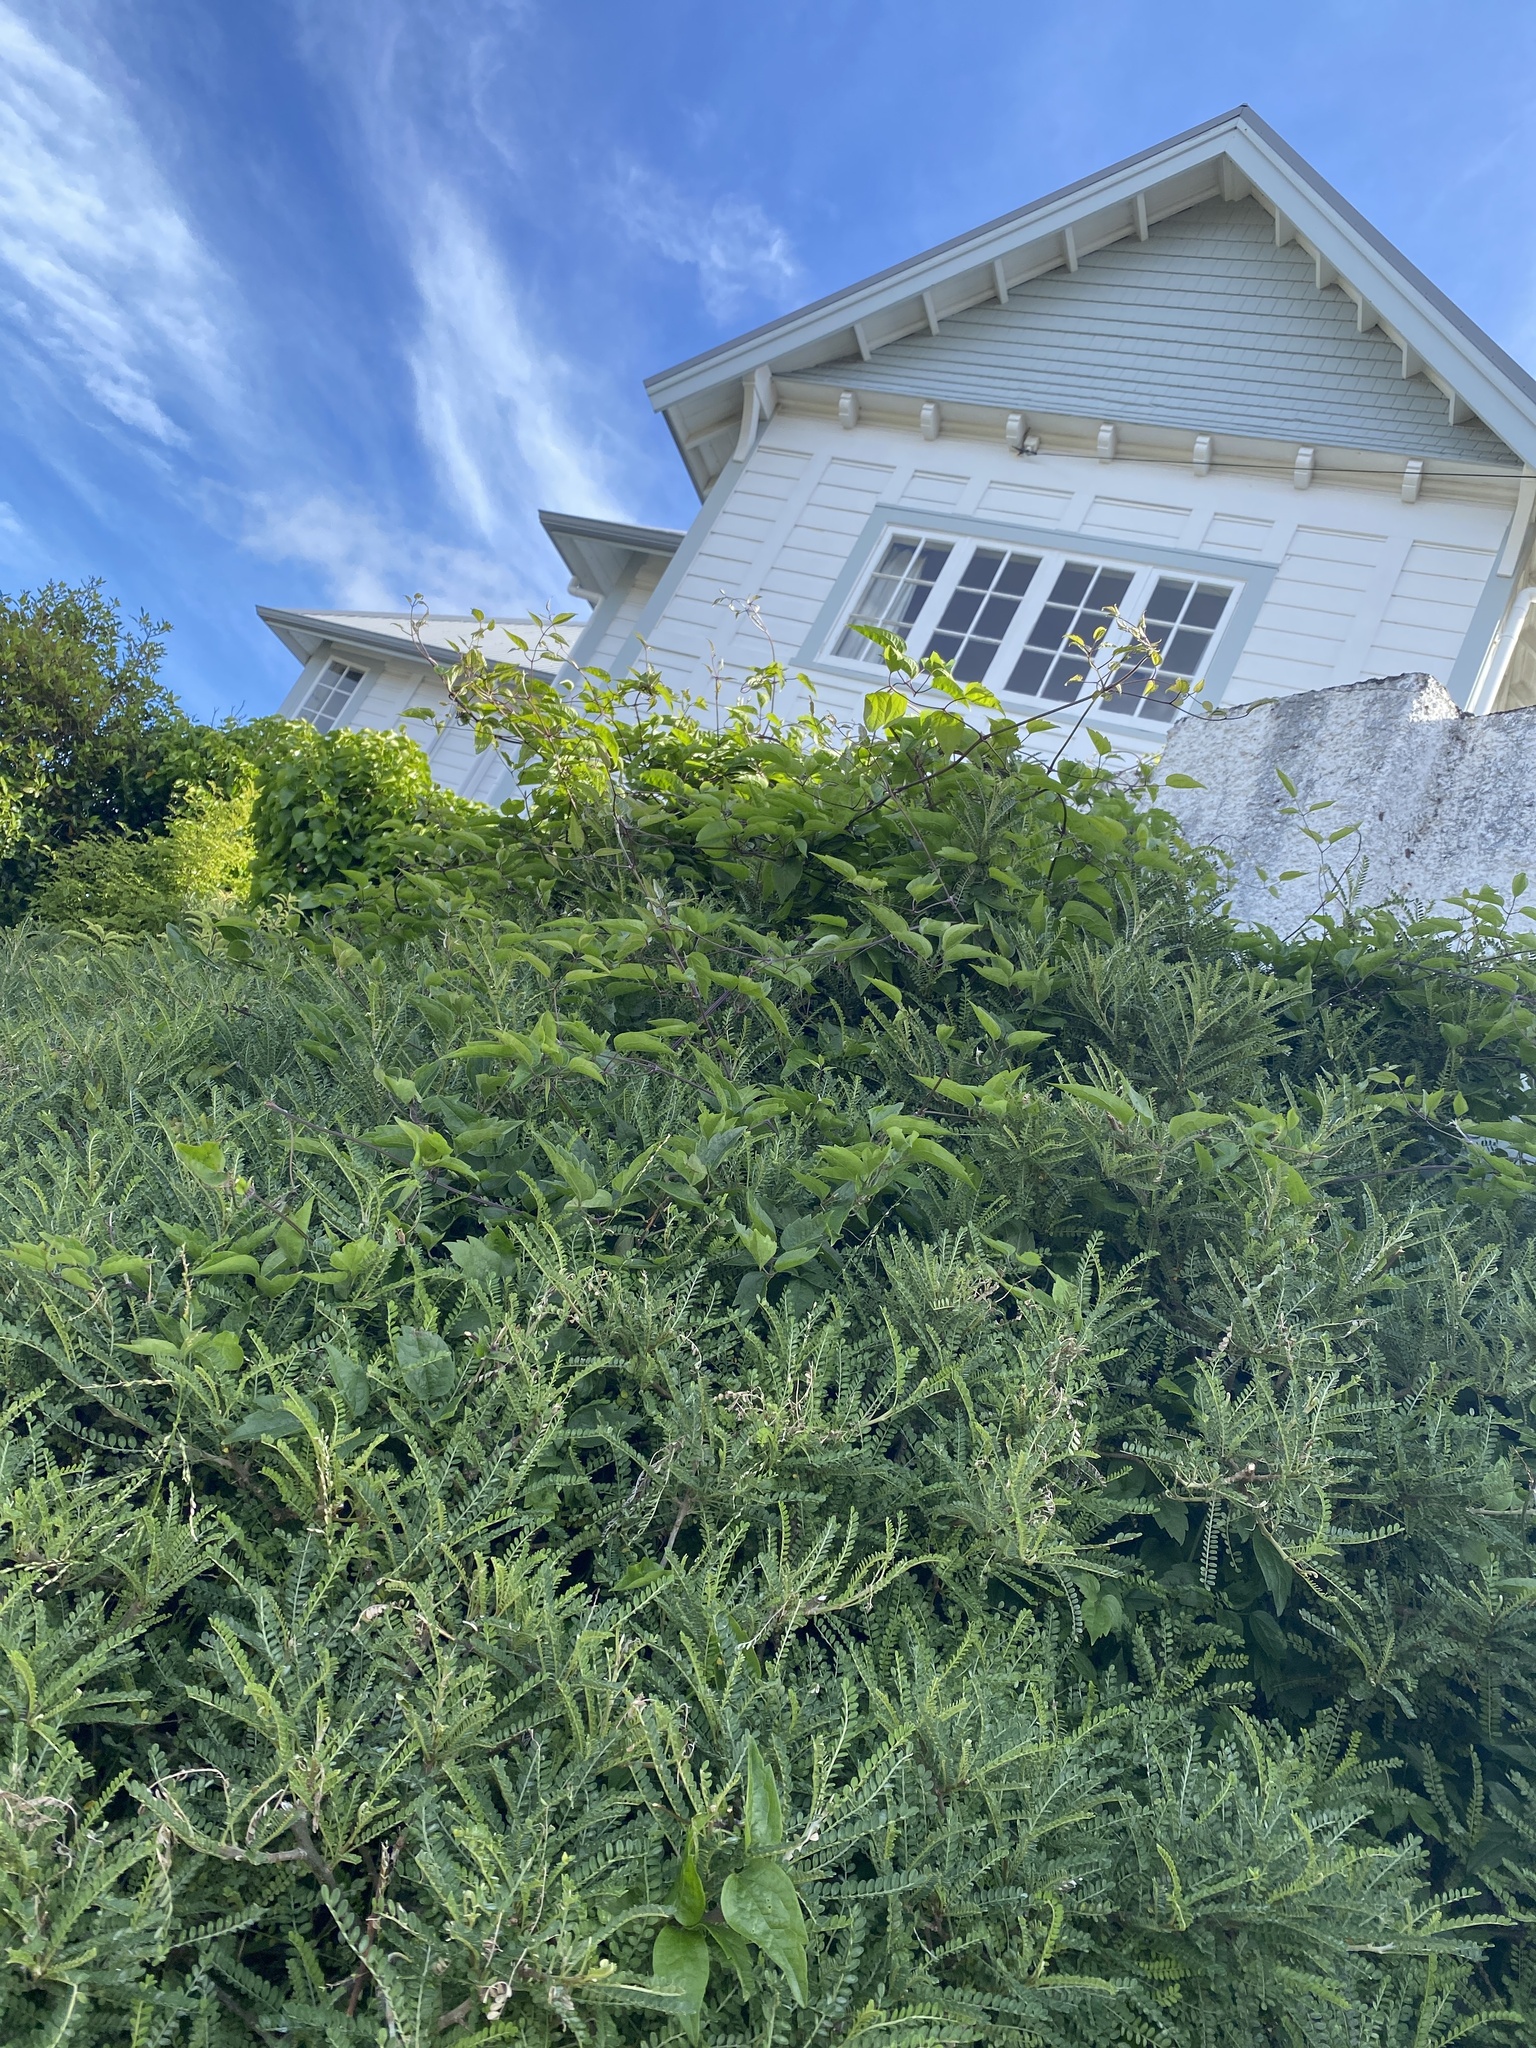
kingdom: Plantae
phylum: Tracheophyta
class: Magnoliopsida
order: Ranunculales
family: Ranunculaceae
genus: Clematis
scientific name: Clematis vitalba
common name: Evergreen clematis
